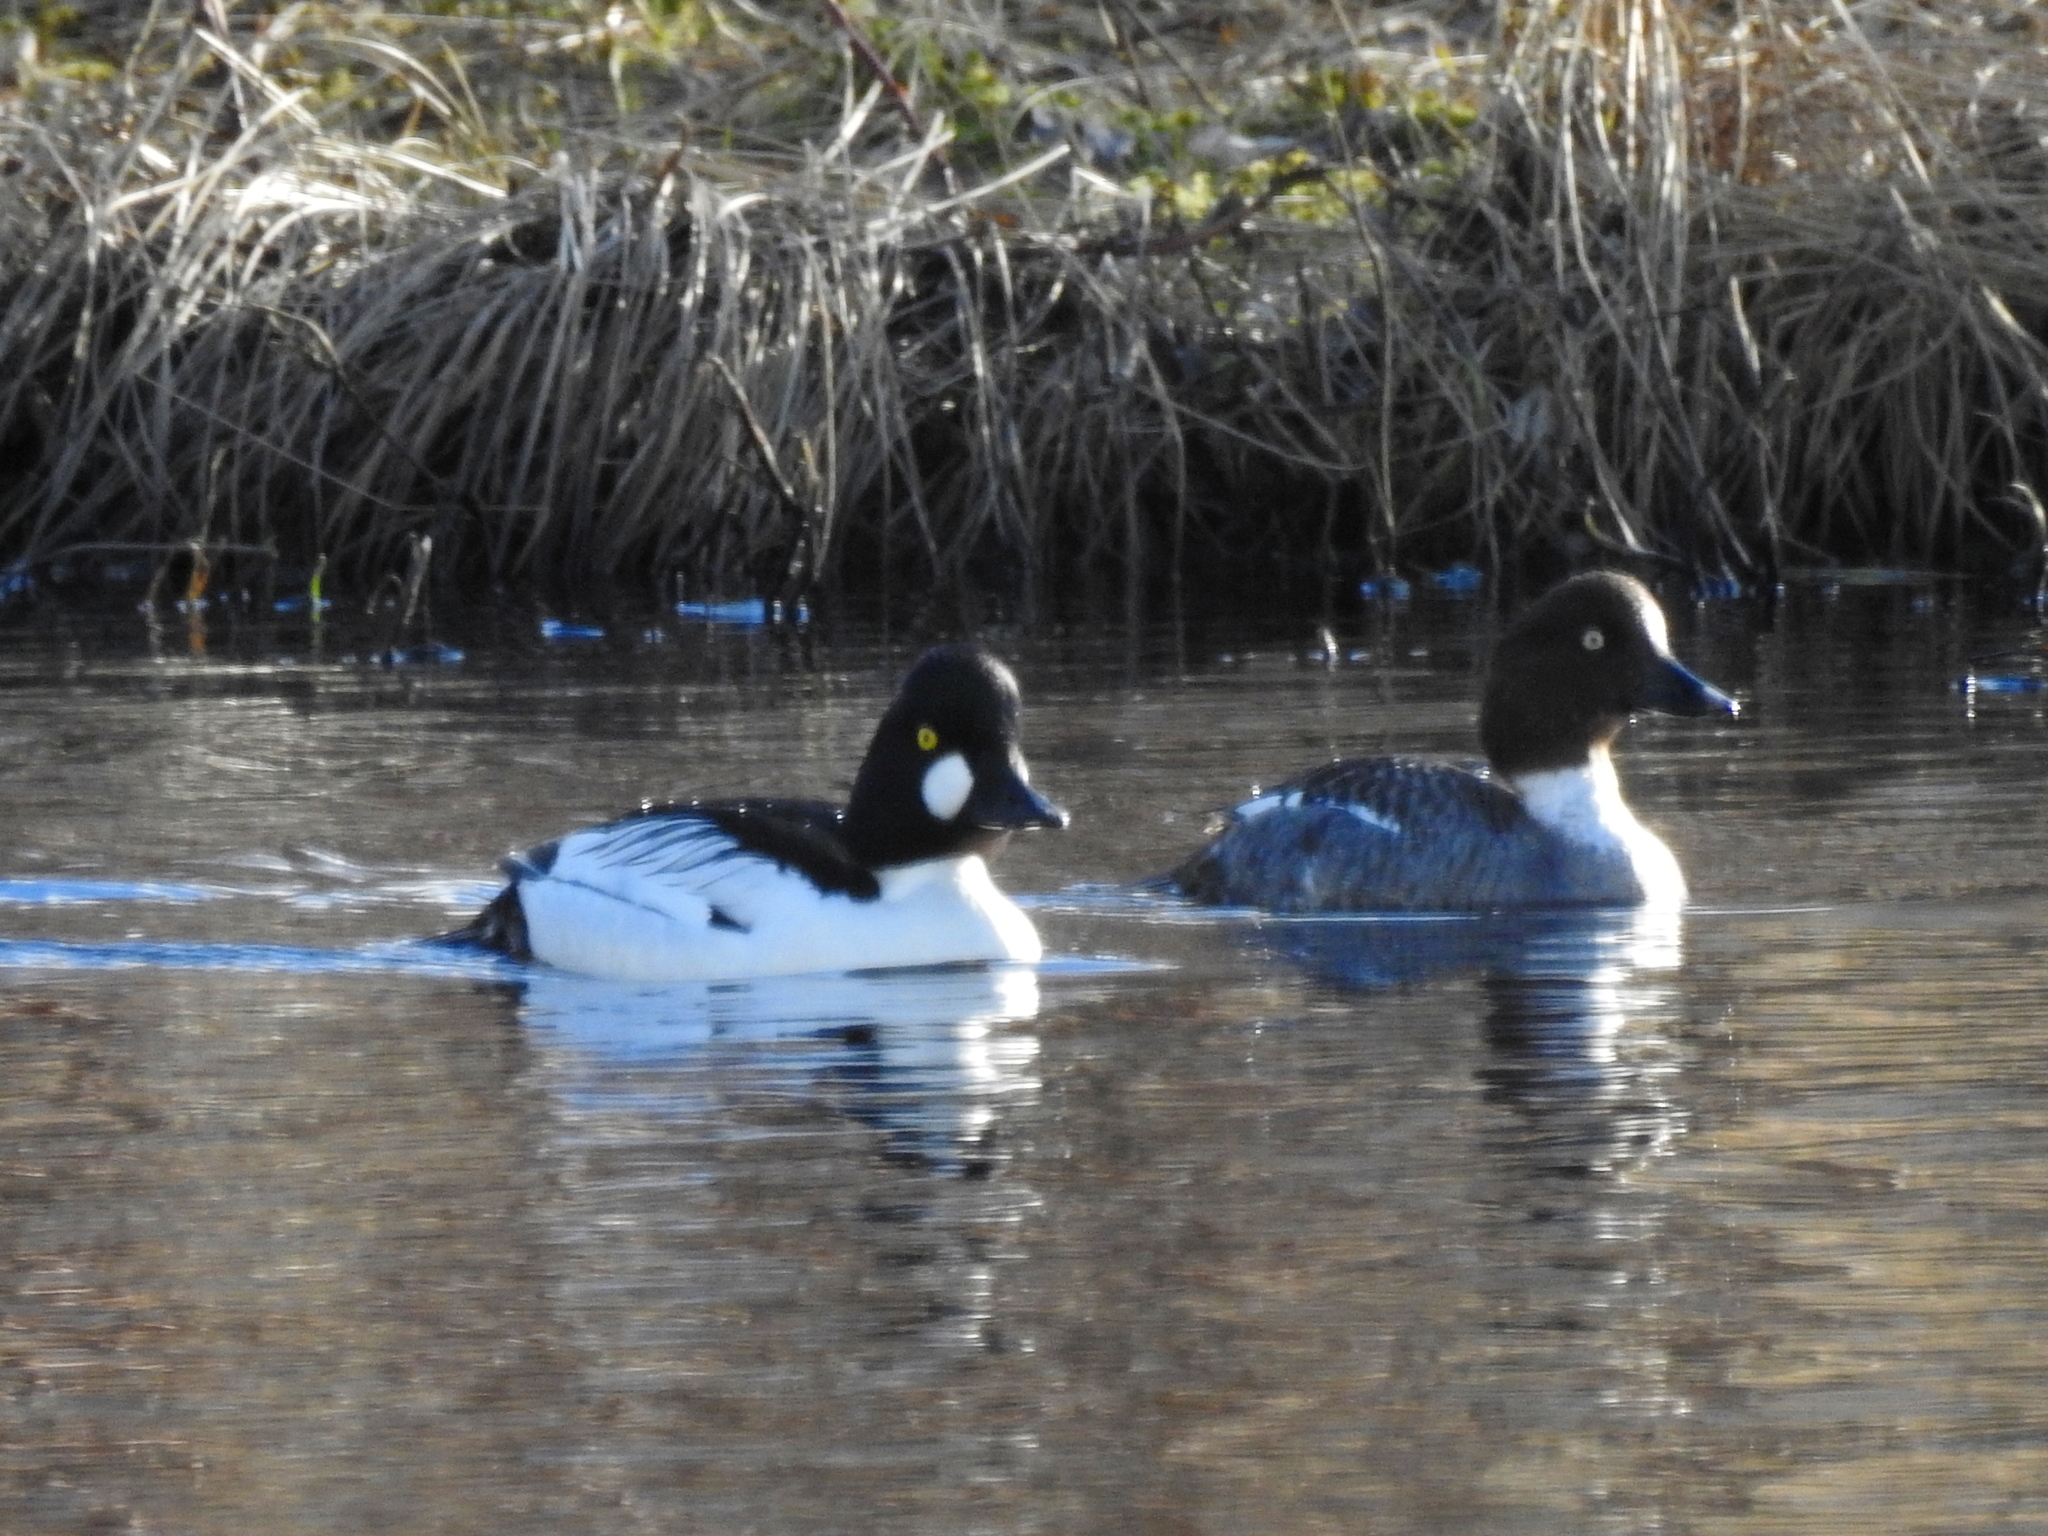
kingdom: Animalia
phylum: Chordata
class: Aves
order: Anseriformes
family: Anatidae
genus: Bucephala
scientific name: Bucephala clangula
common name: Common goldeneye
